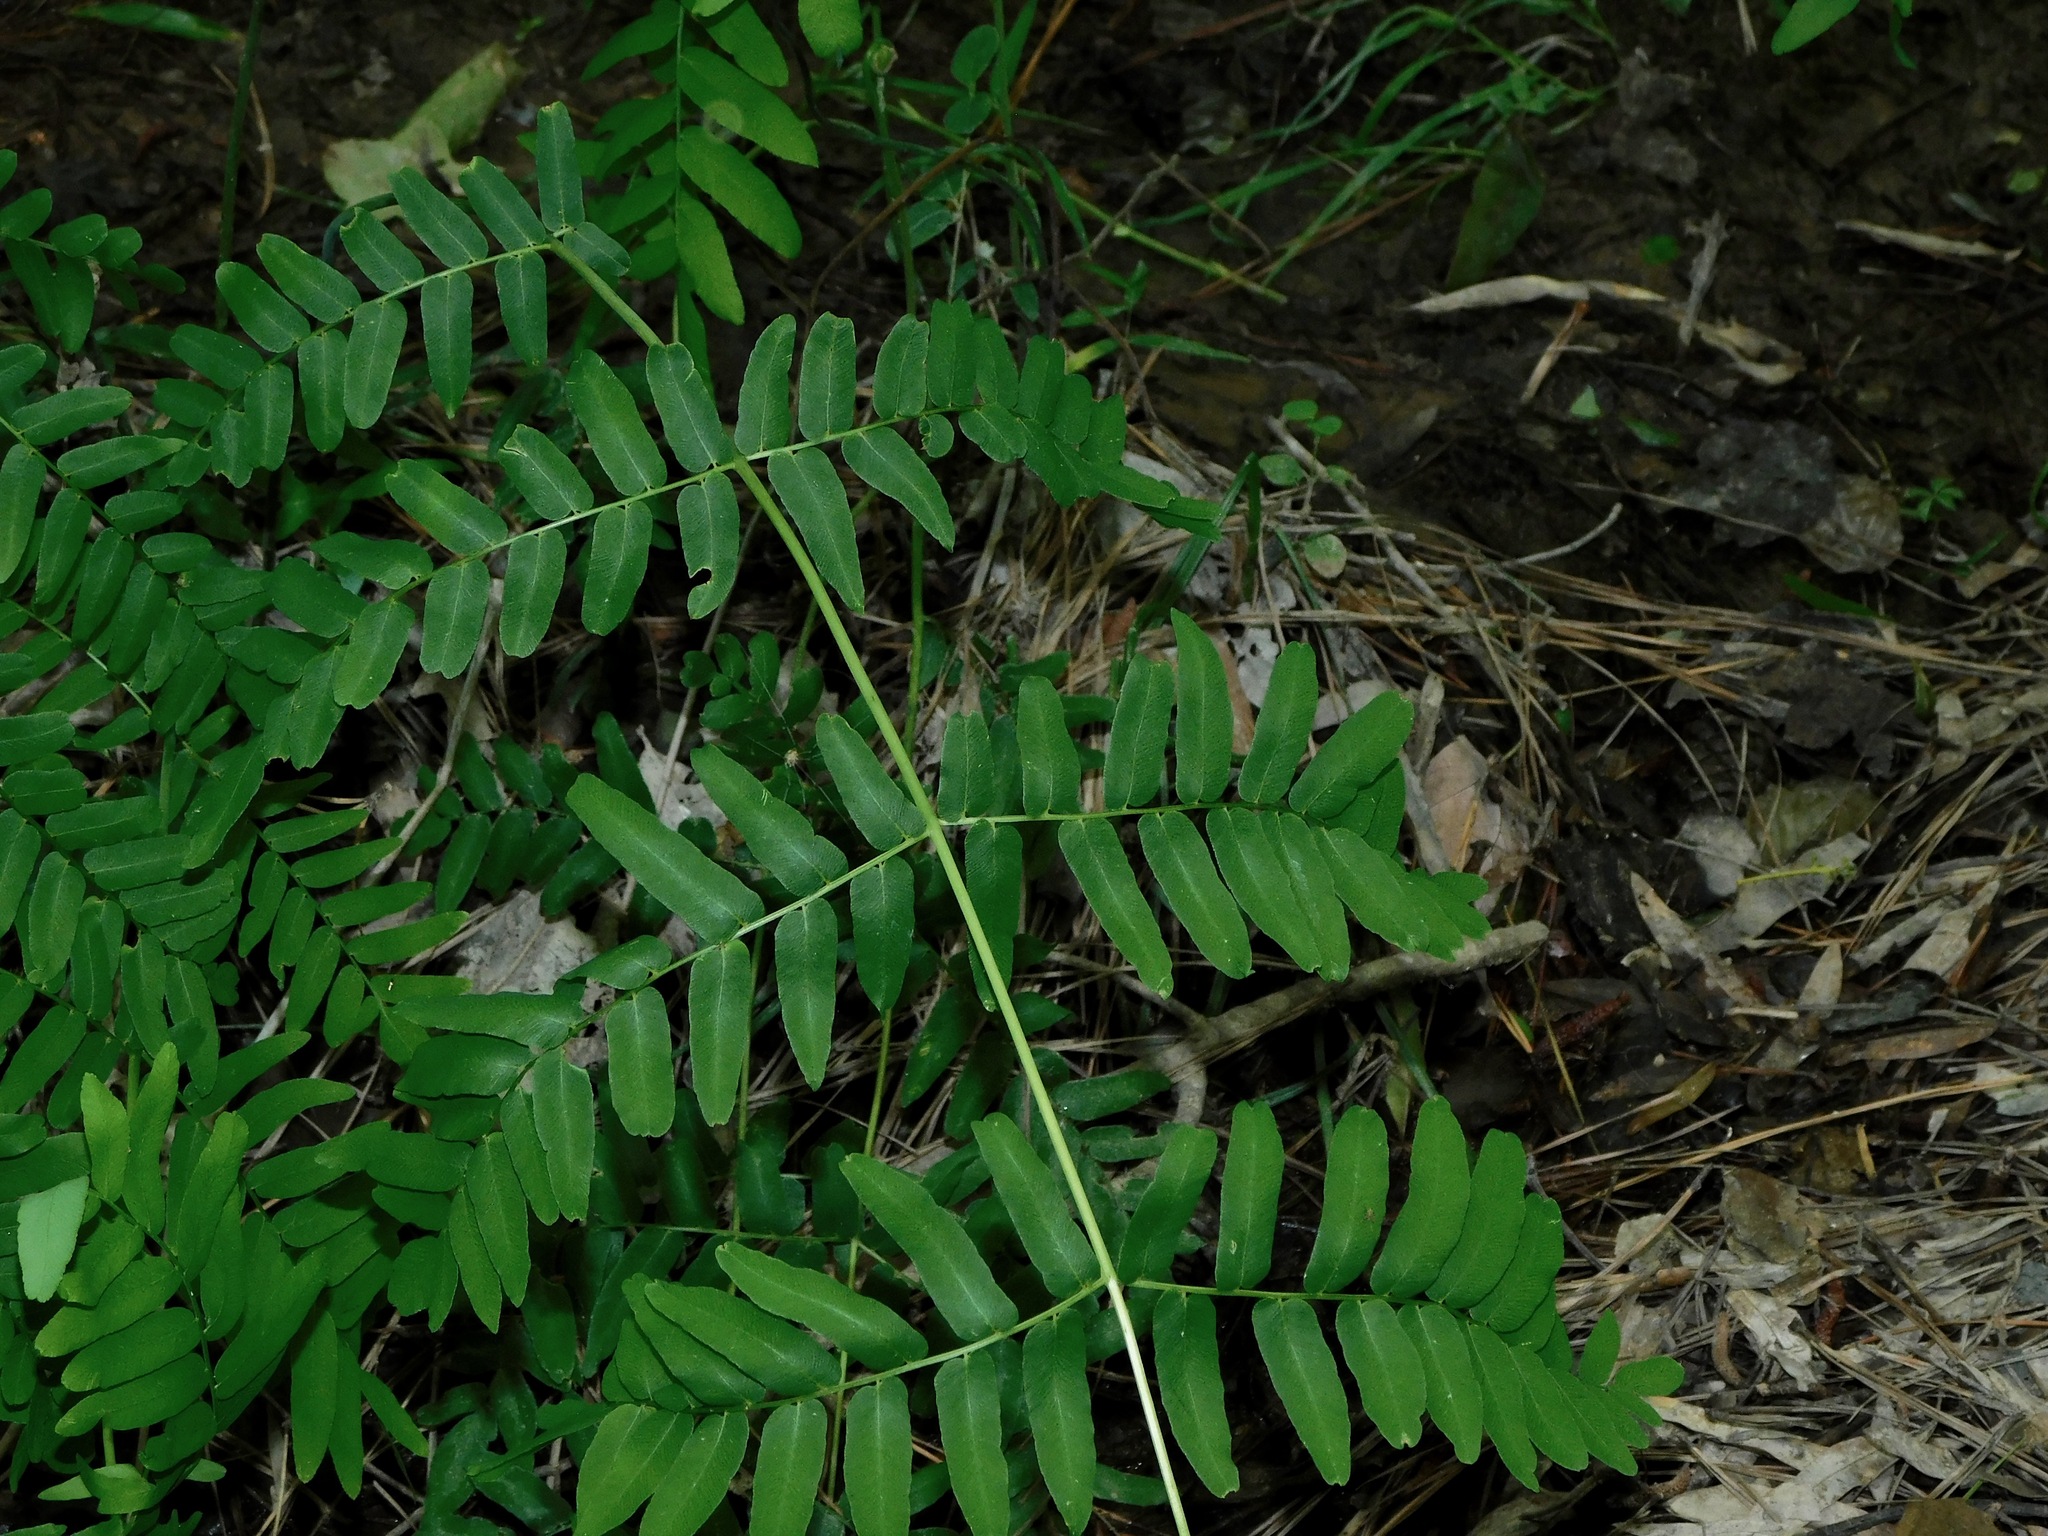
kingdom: Plantae
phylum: Tracheophyta
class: Polypodiopsida
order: Osmundales
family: Osmundaceae
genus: Osmunda
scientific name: Osmunda spectabilis
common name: American royal fern
